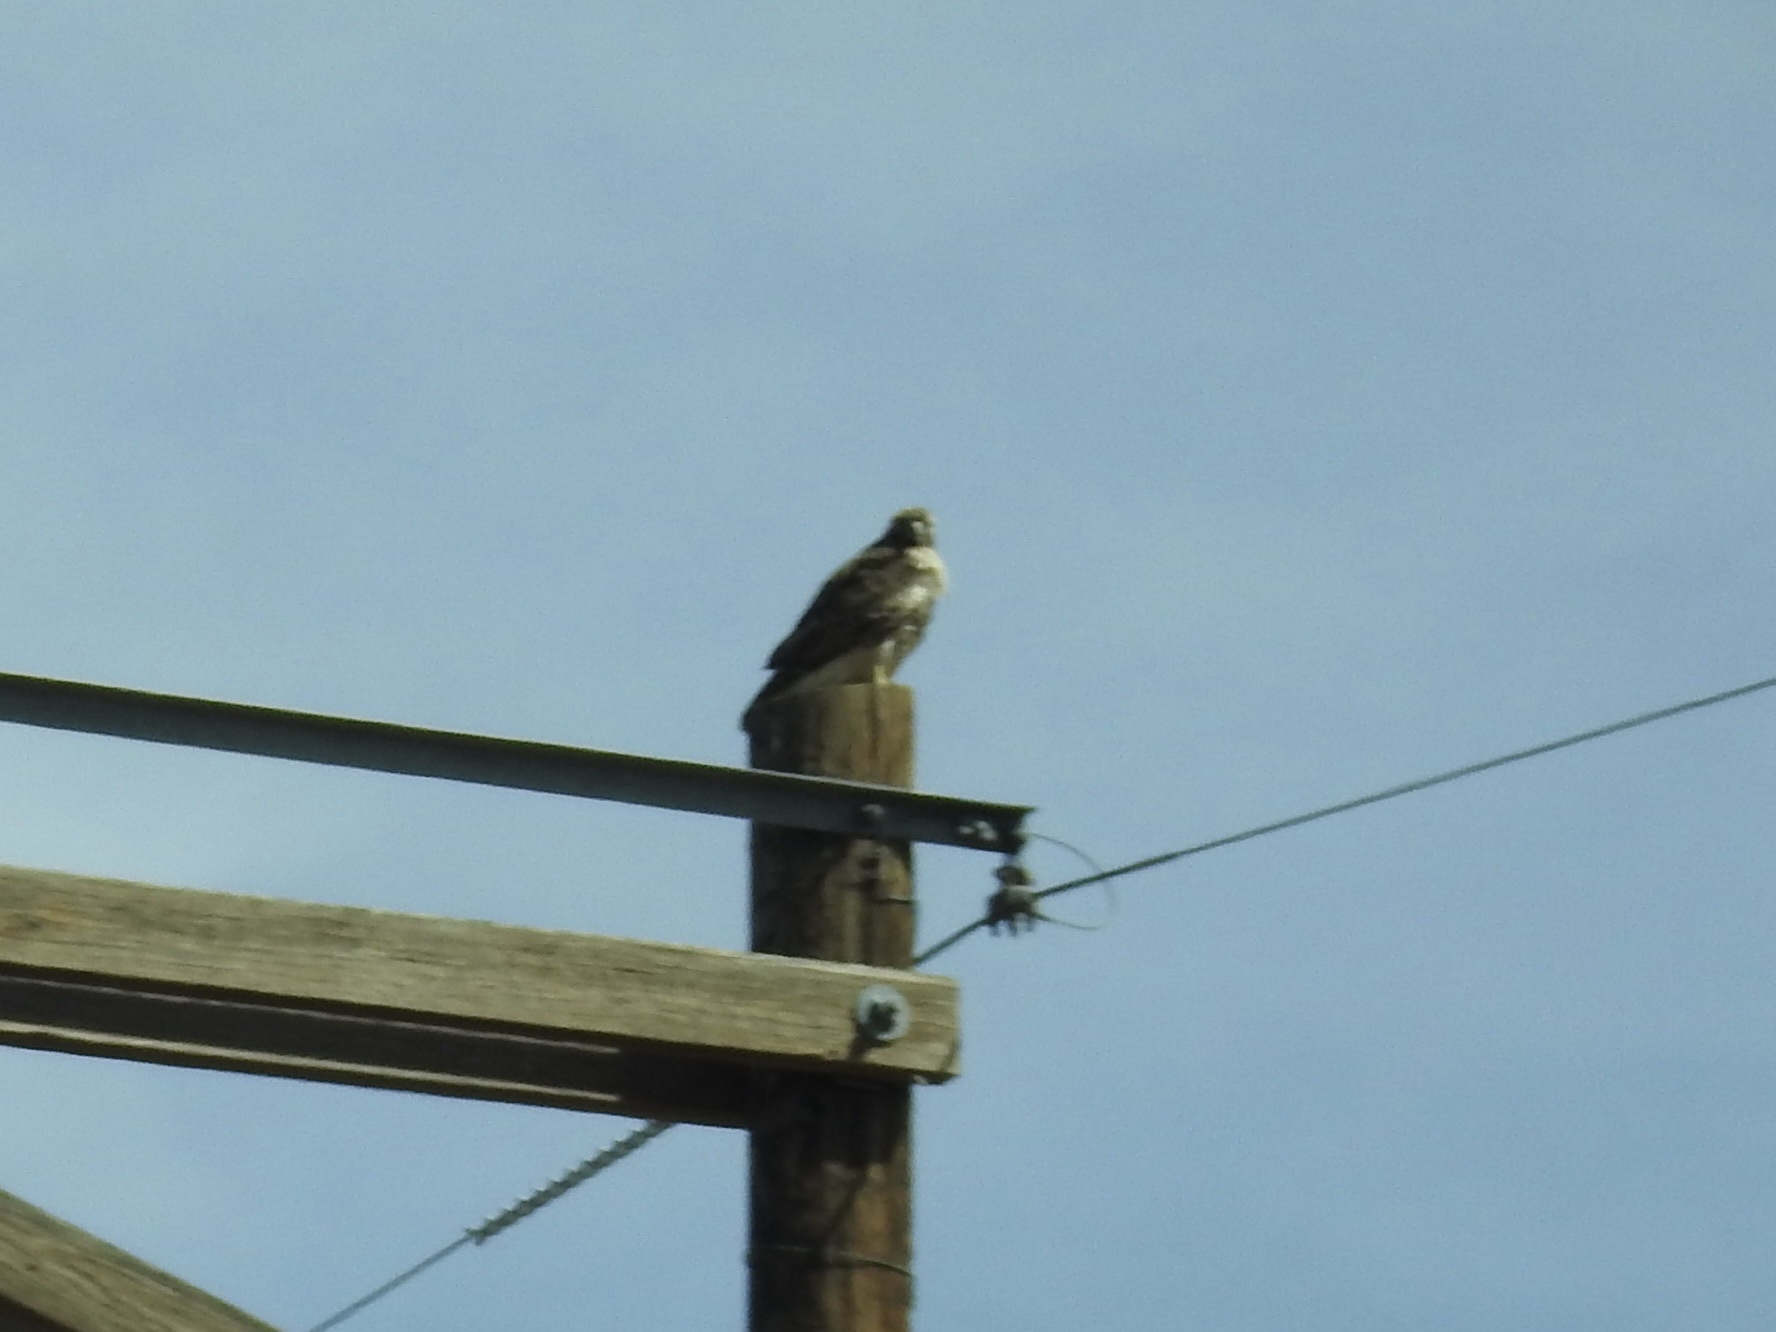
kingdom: Animalia
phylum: Chordata
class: Aves
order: Accipitriformes
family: Accipitridae
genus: Buteo
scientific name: Buteo jamaicensis
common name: Red-tailed hawk
